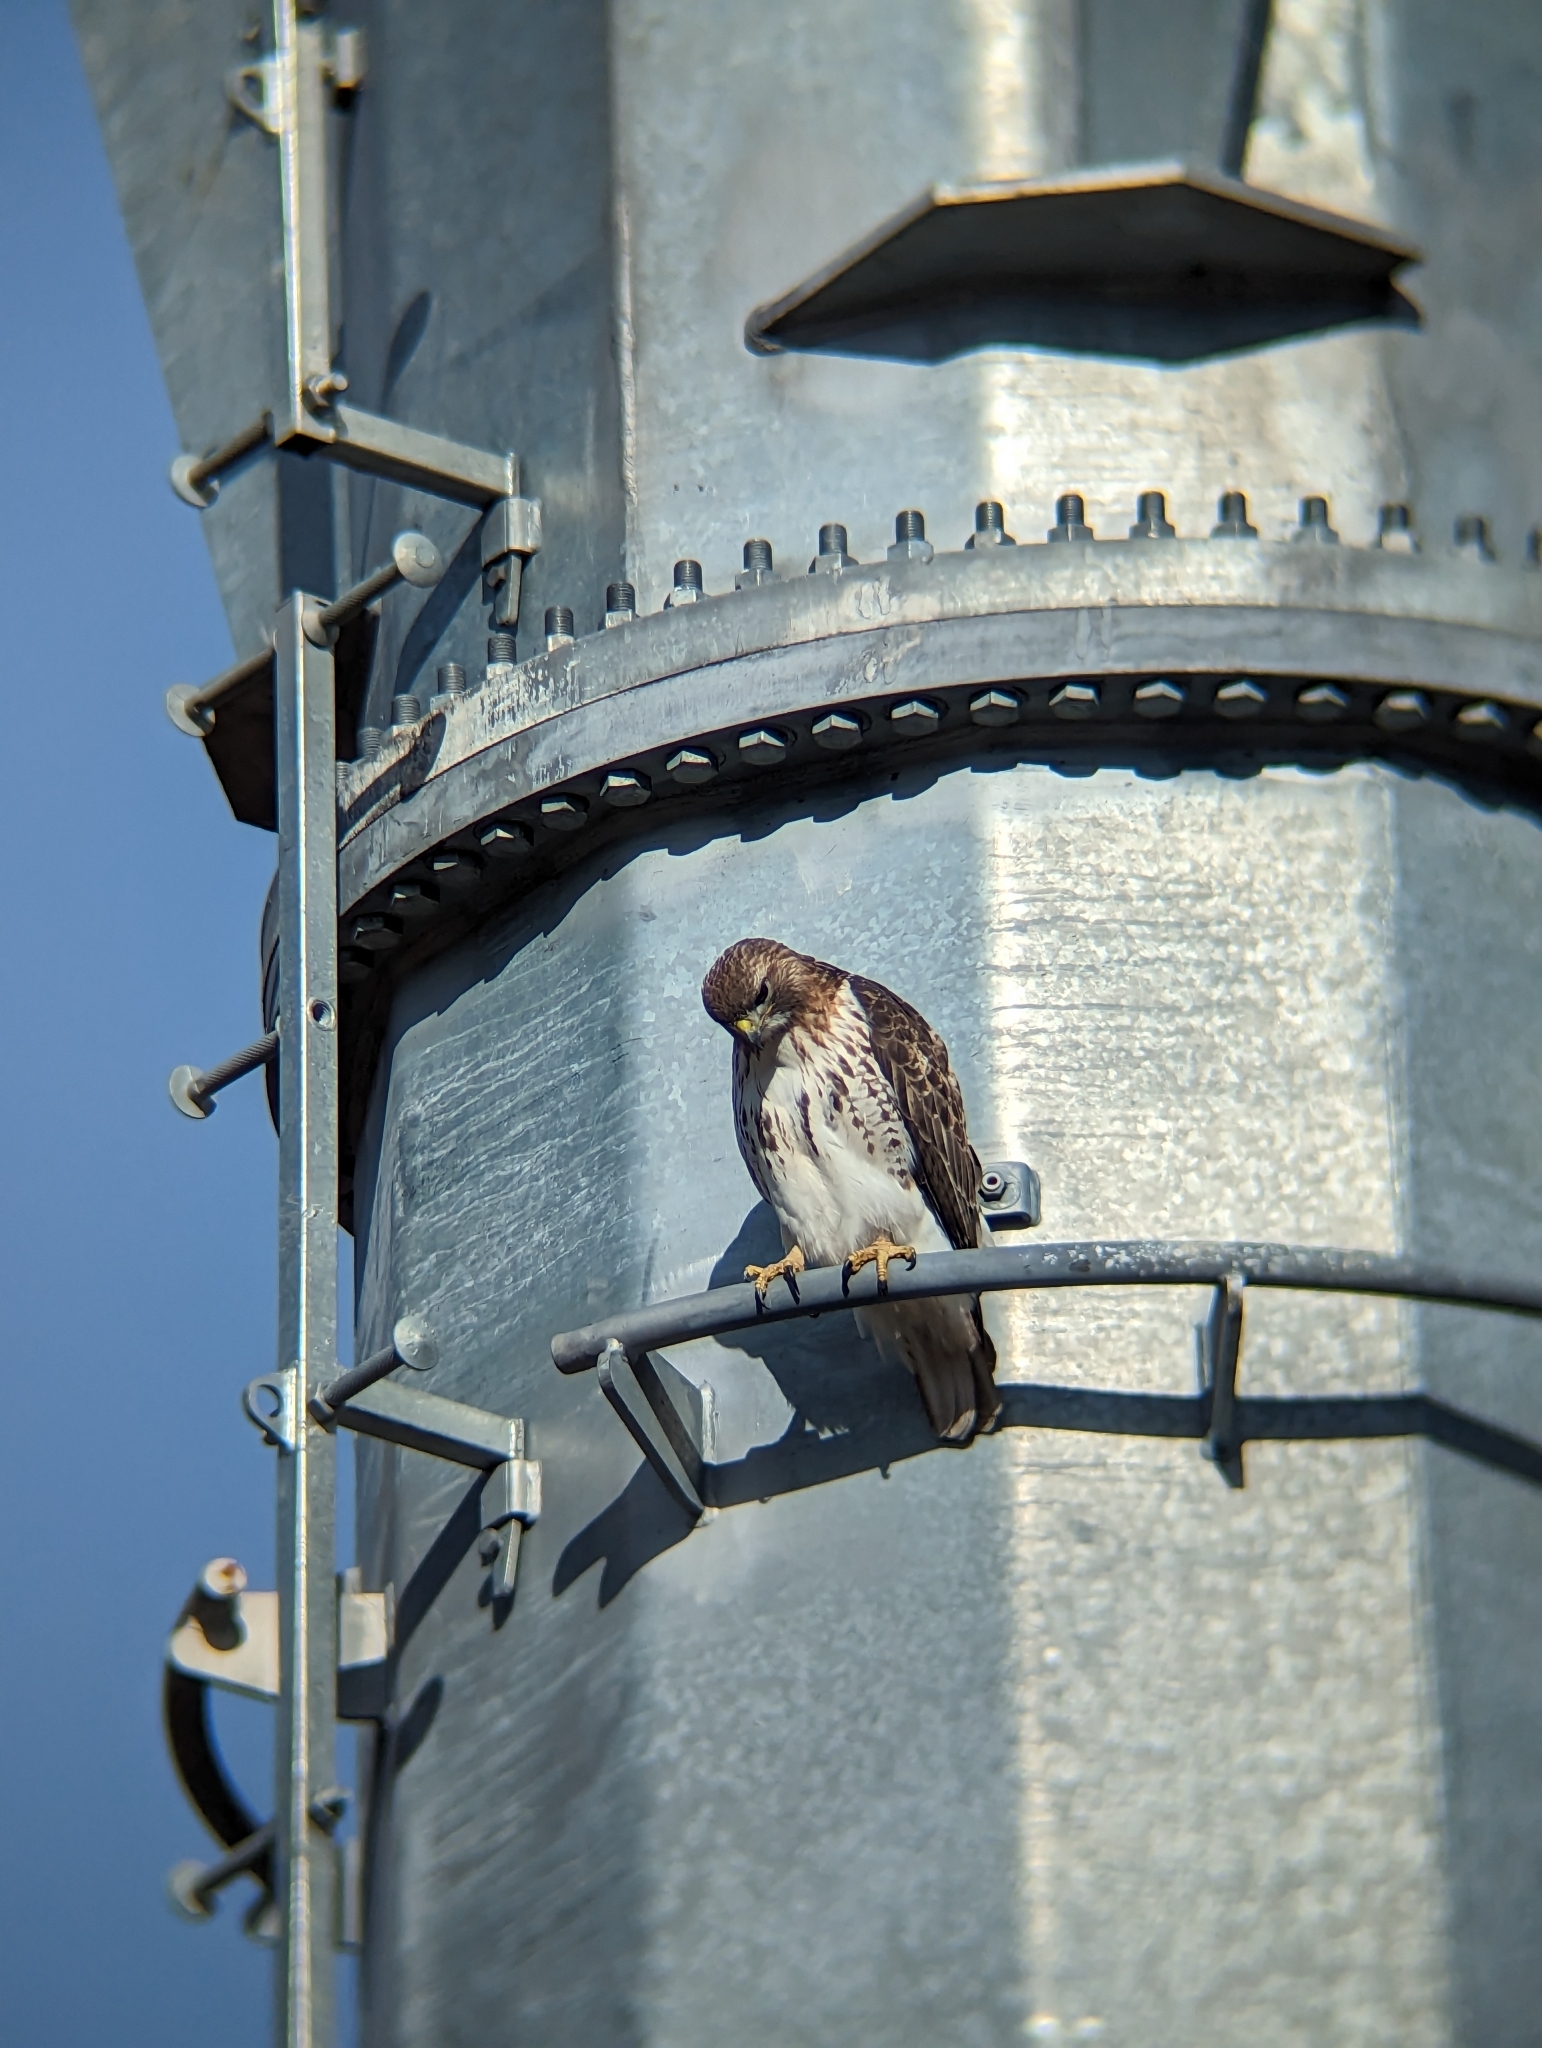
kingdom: Animalia
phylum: Chordata
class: Aves
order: Accipitriformes
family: Accipitridae
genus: Buteo
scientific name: Buteo jamaicensis
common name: Red-tailed hawk
